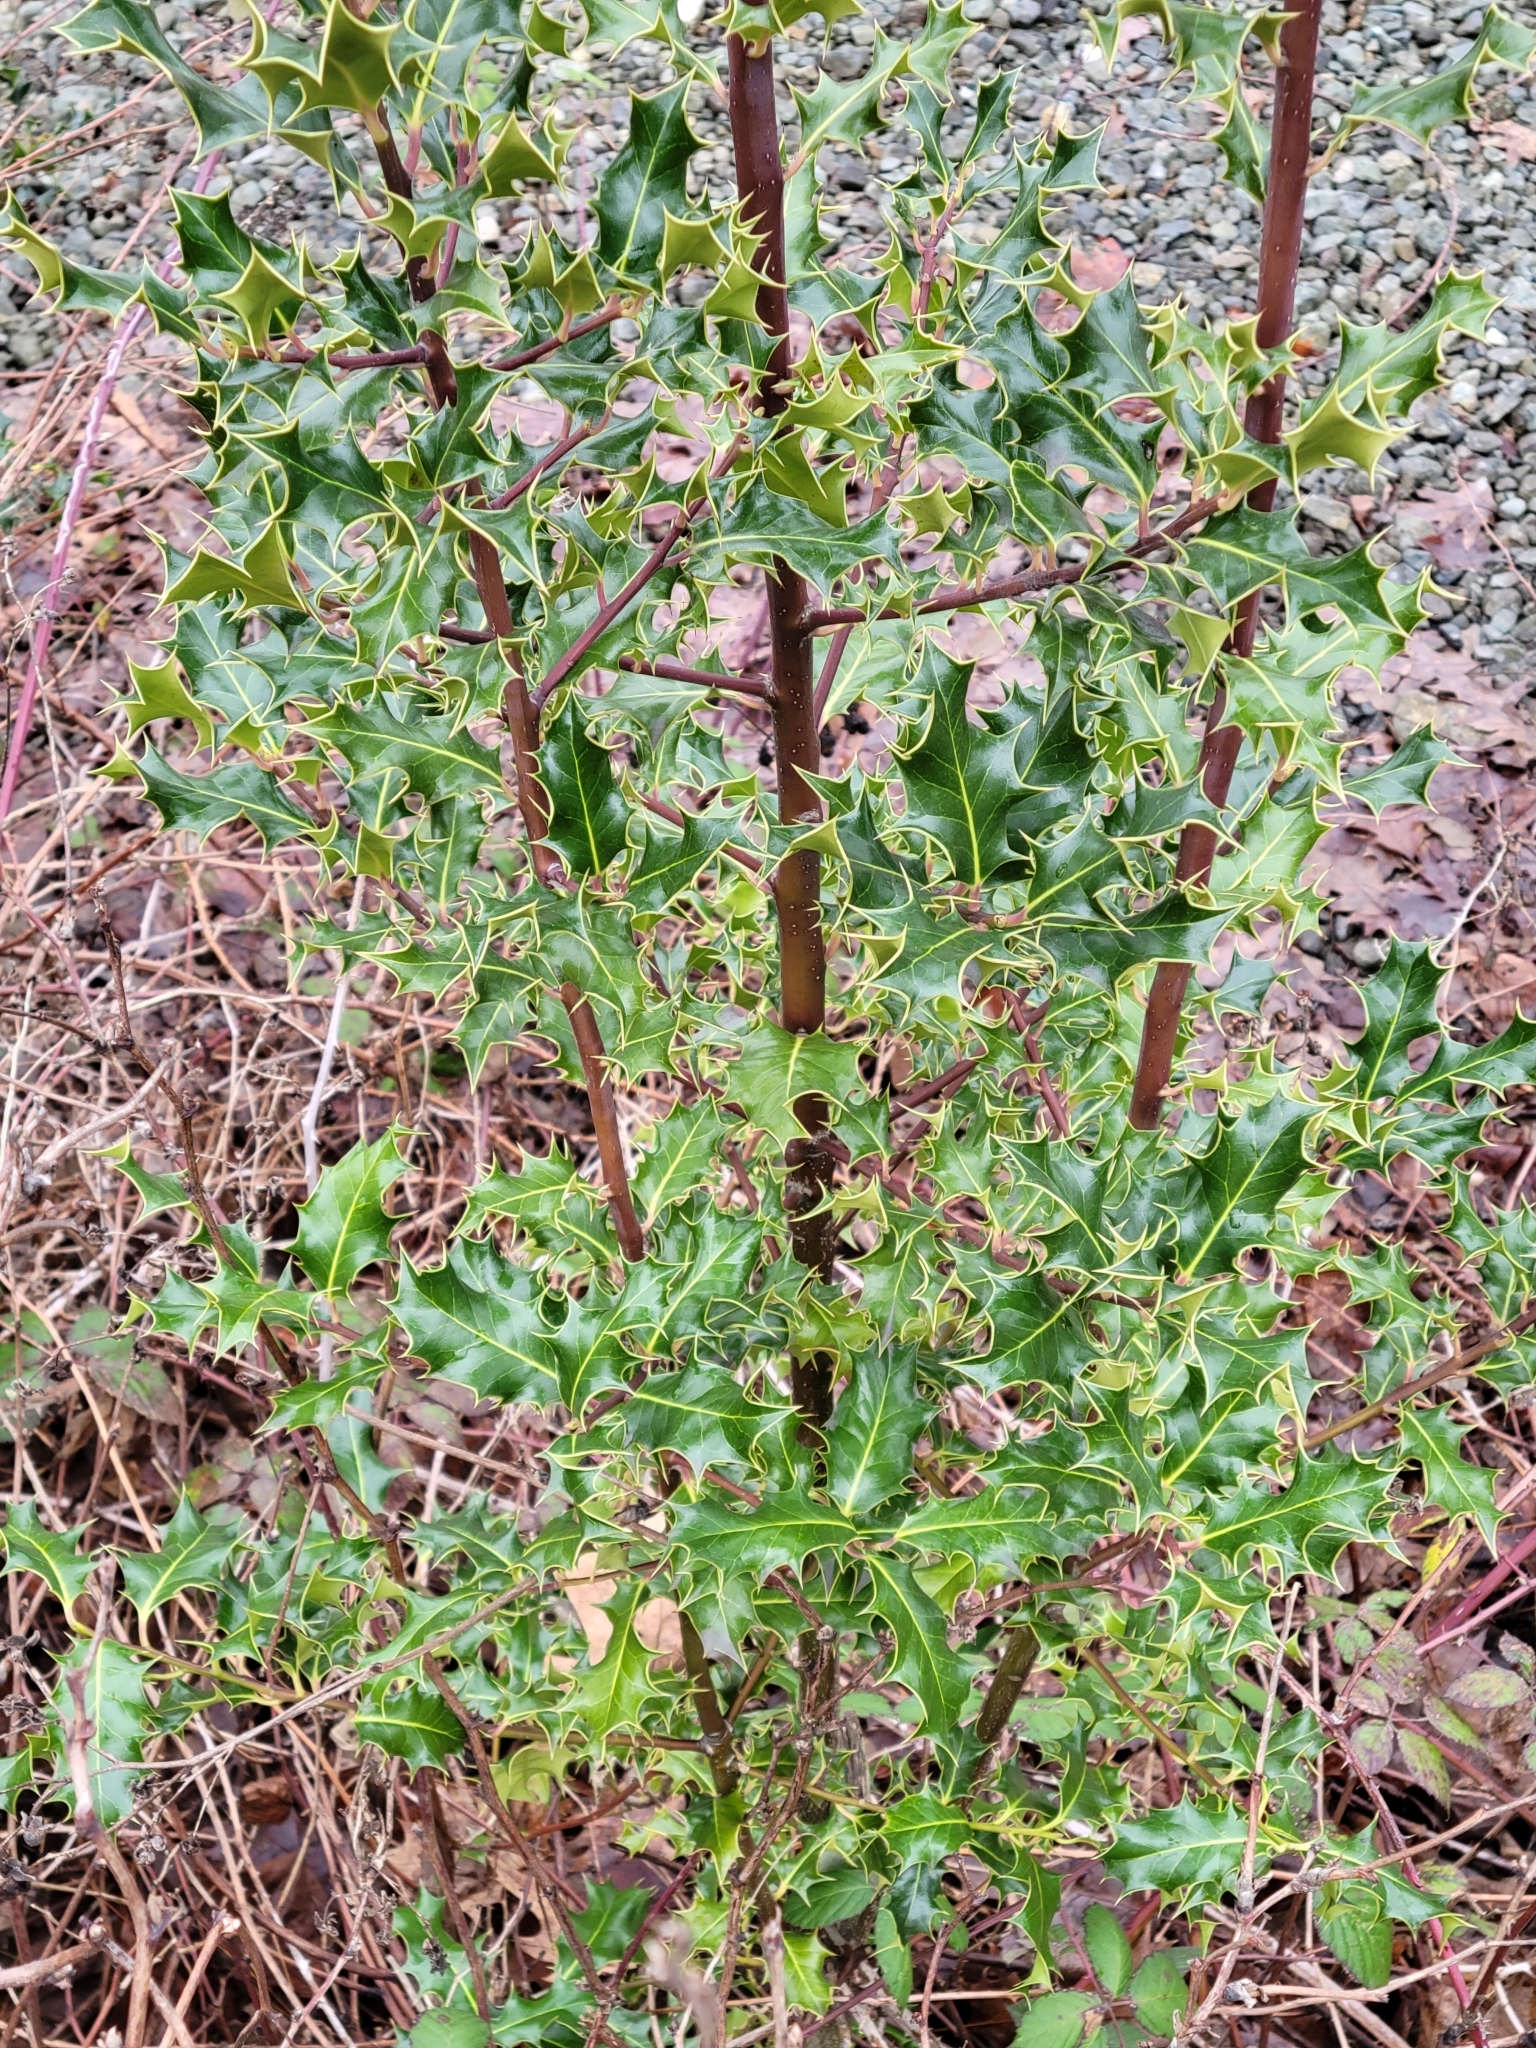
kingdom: Plantae
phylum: Tracheophyta
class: Magnoliopsida
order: Aquifoliales
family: Aquifoliaceae
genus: Ilex
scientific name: Ilex aquifolium
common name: English holly
